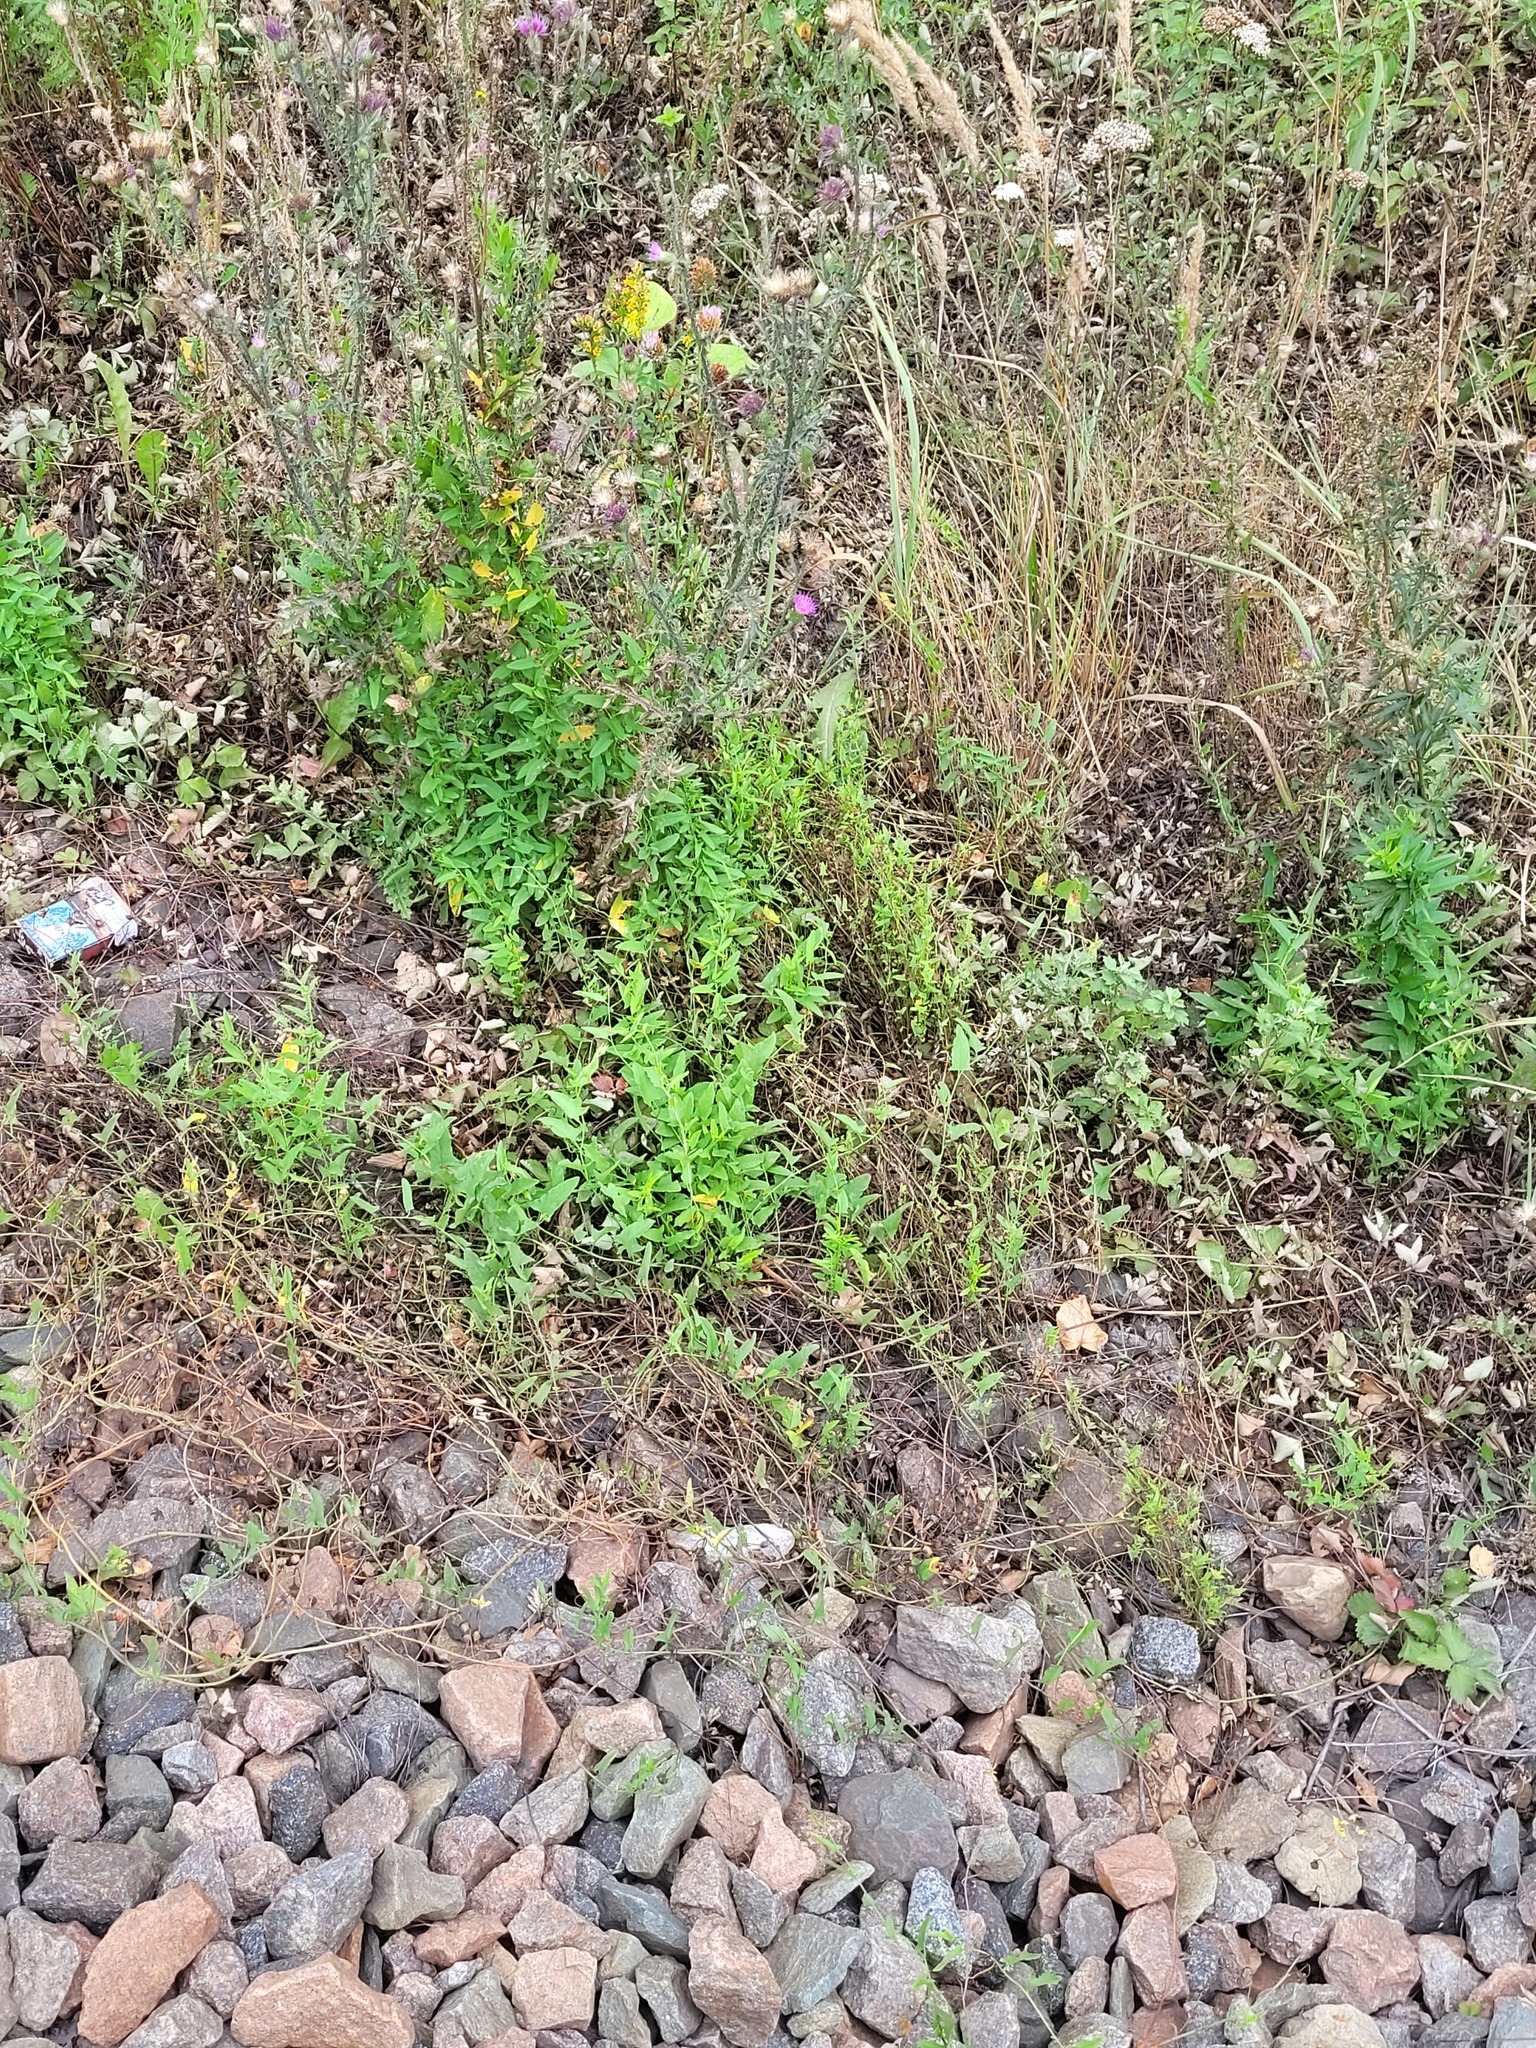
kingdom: Plantae
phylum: Tracheophyta
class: Magnoliopsida
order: Solanales
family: Convolvulaceae
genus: Convolvulus
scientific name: Convolvulus arvensis
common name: Field bindweed
